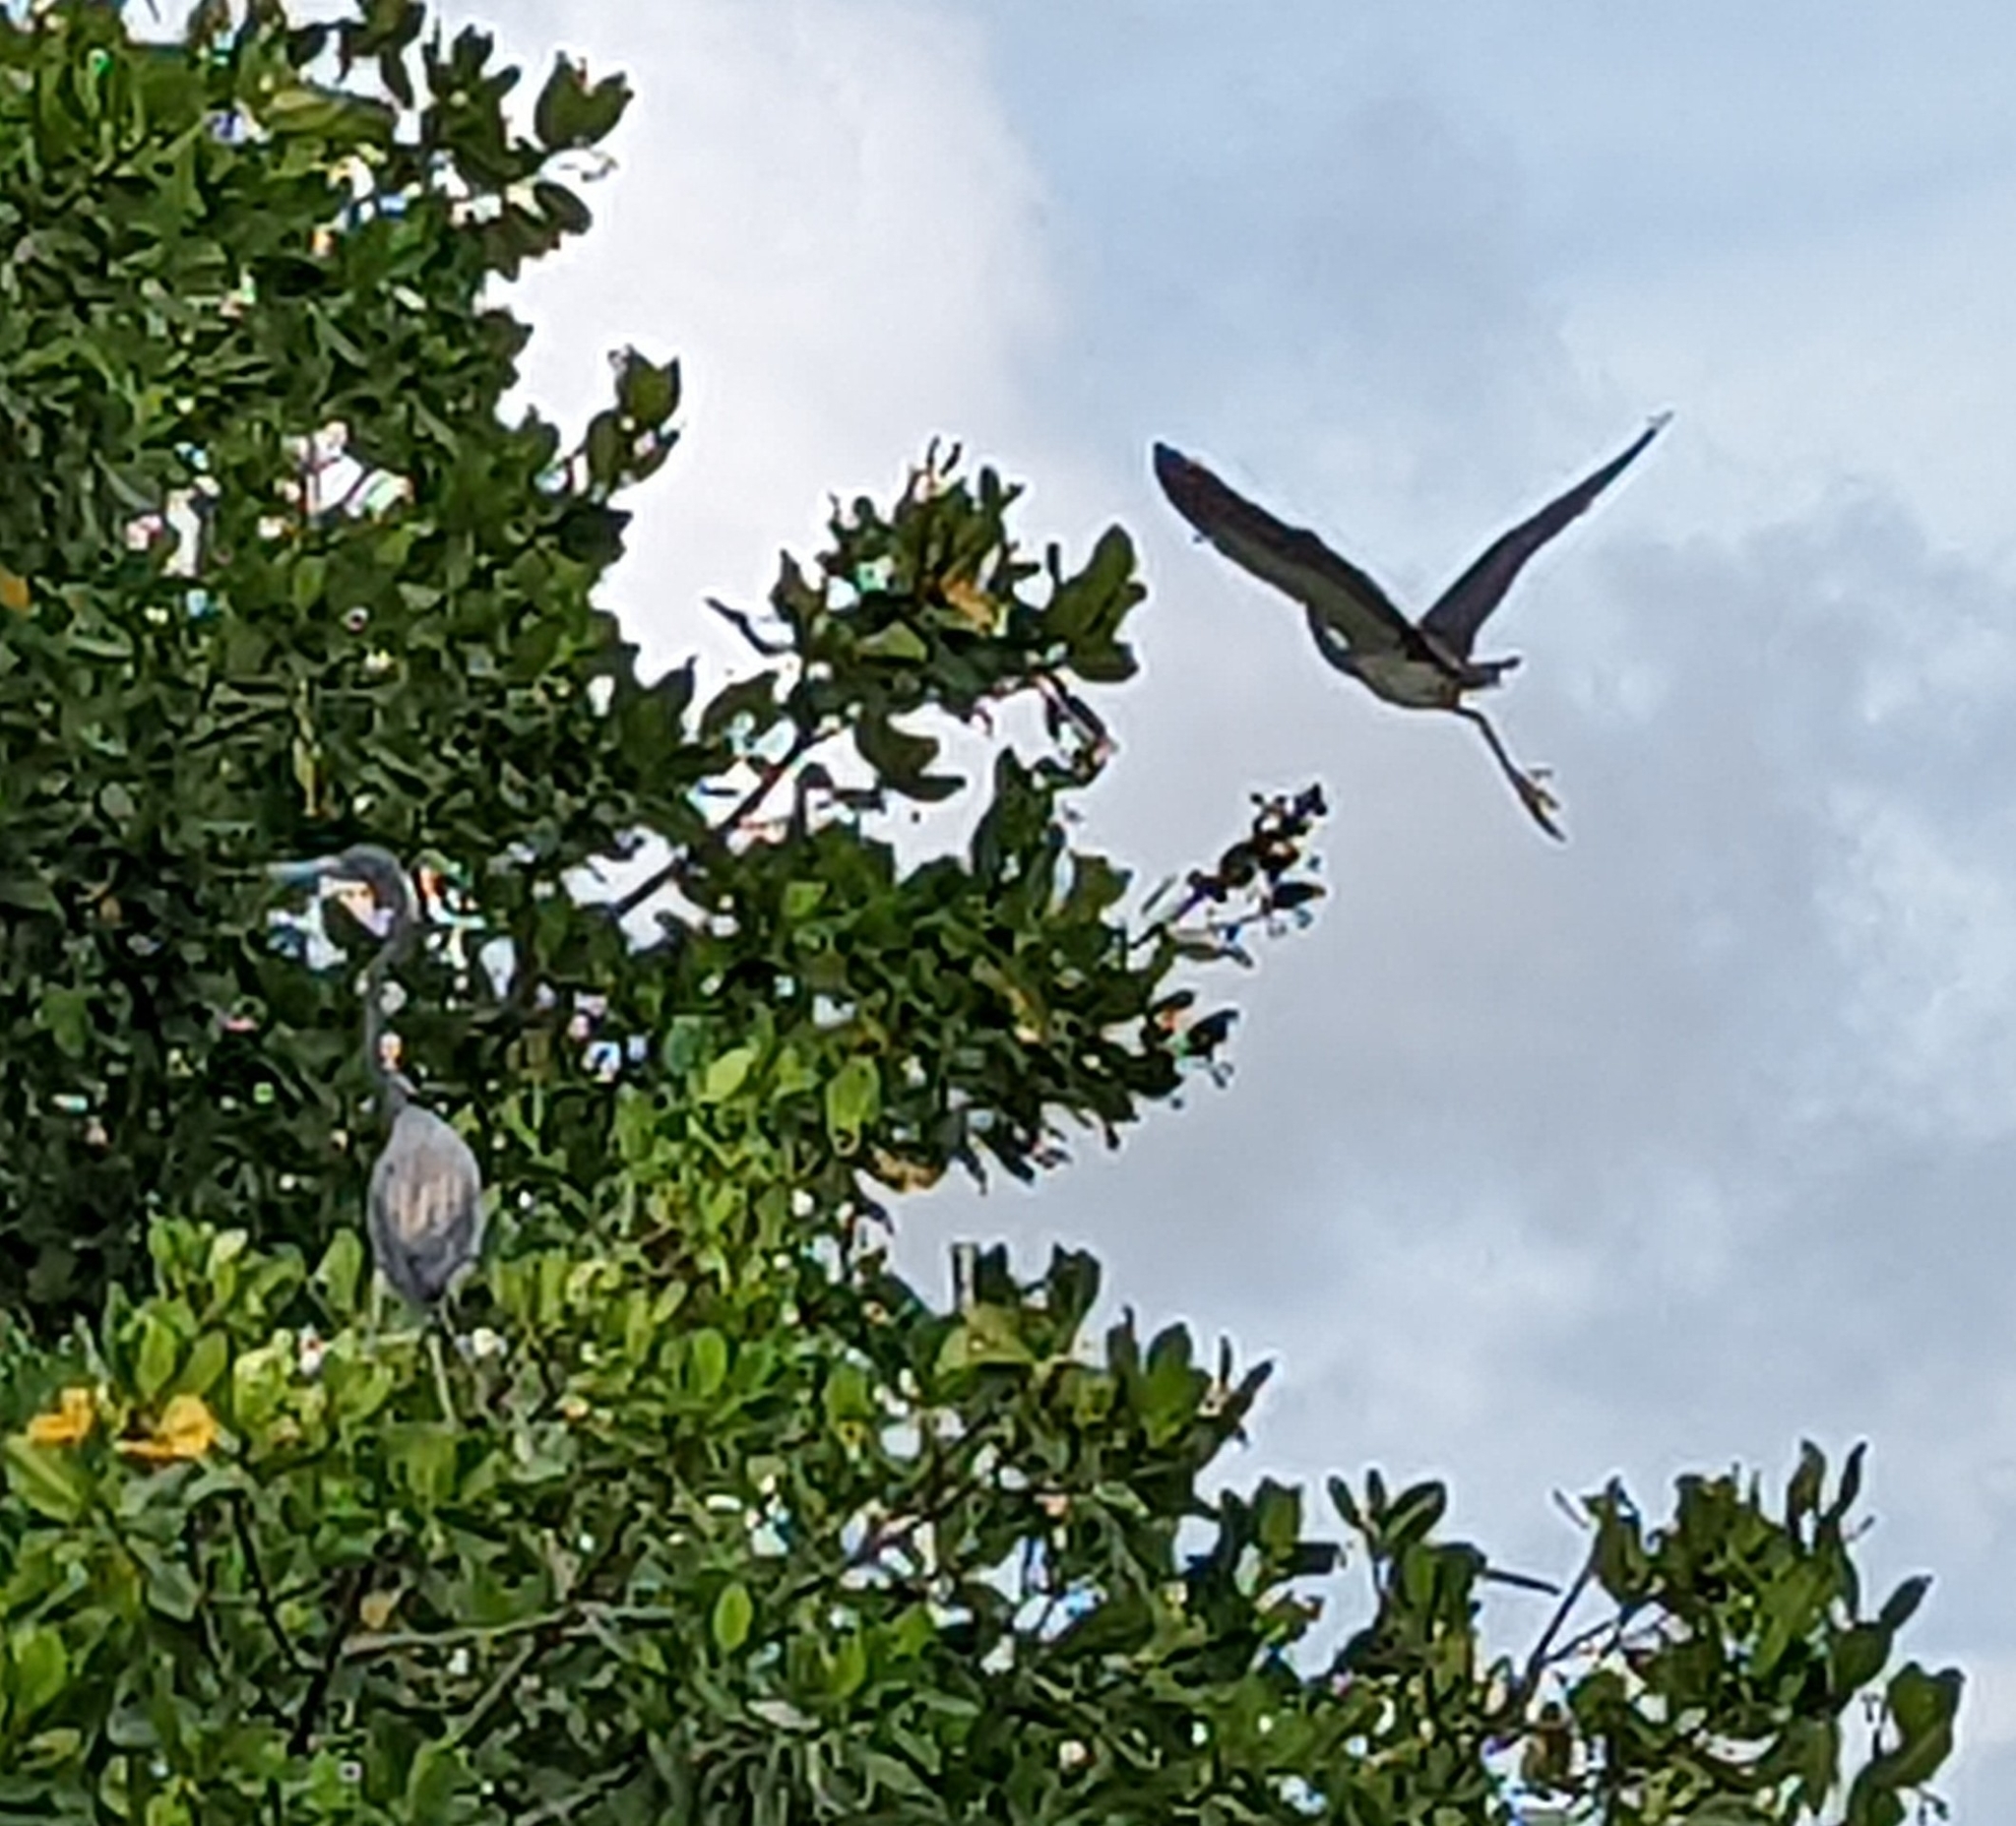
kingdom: Animalia
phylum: Chordata
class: Aves
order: Pelecaniformes
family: Ardeidae
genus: Egretta
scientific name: Egretta tricolor
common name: Tricolored heron
